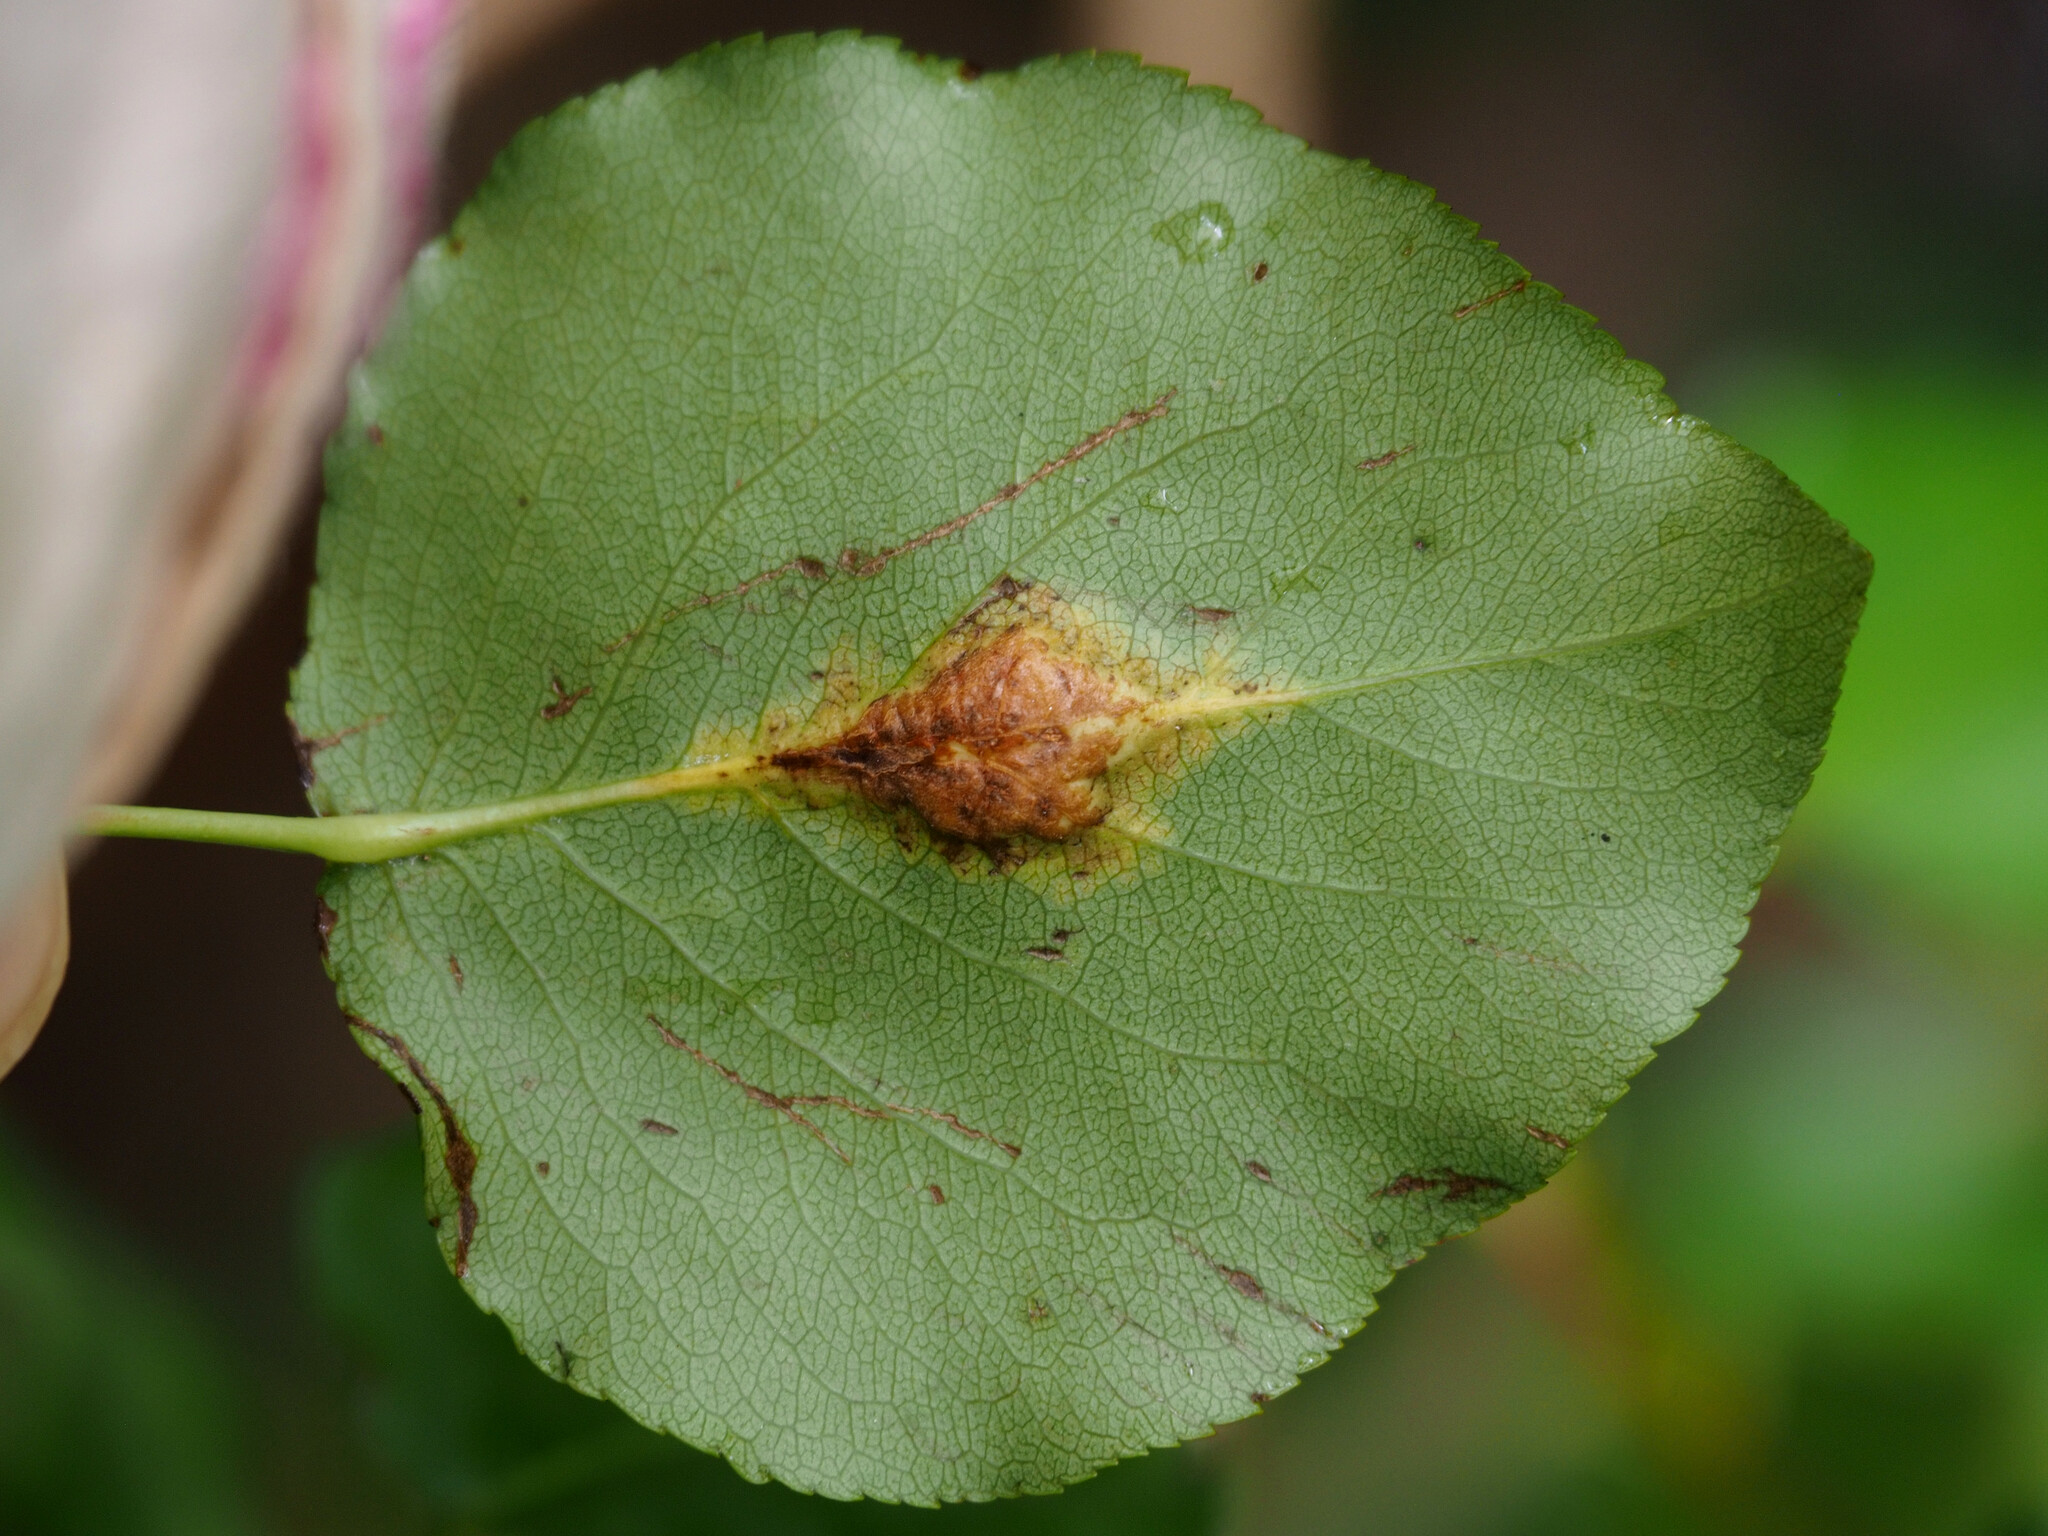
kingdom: Fungi
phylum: Basidiomycota
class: Pucciniomycetes
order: Pucciniales
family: Gymnosporangiaceae
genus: Gymnosporangium
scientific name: Gymnosporangium sabinae
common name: Pear trellis rust fungus
